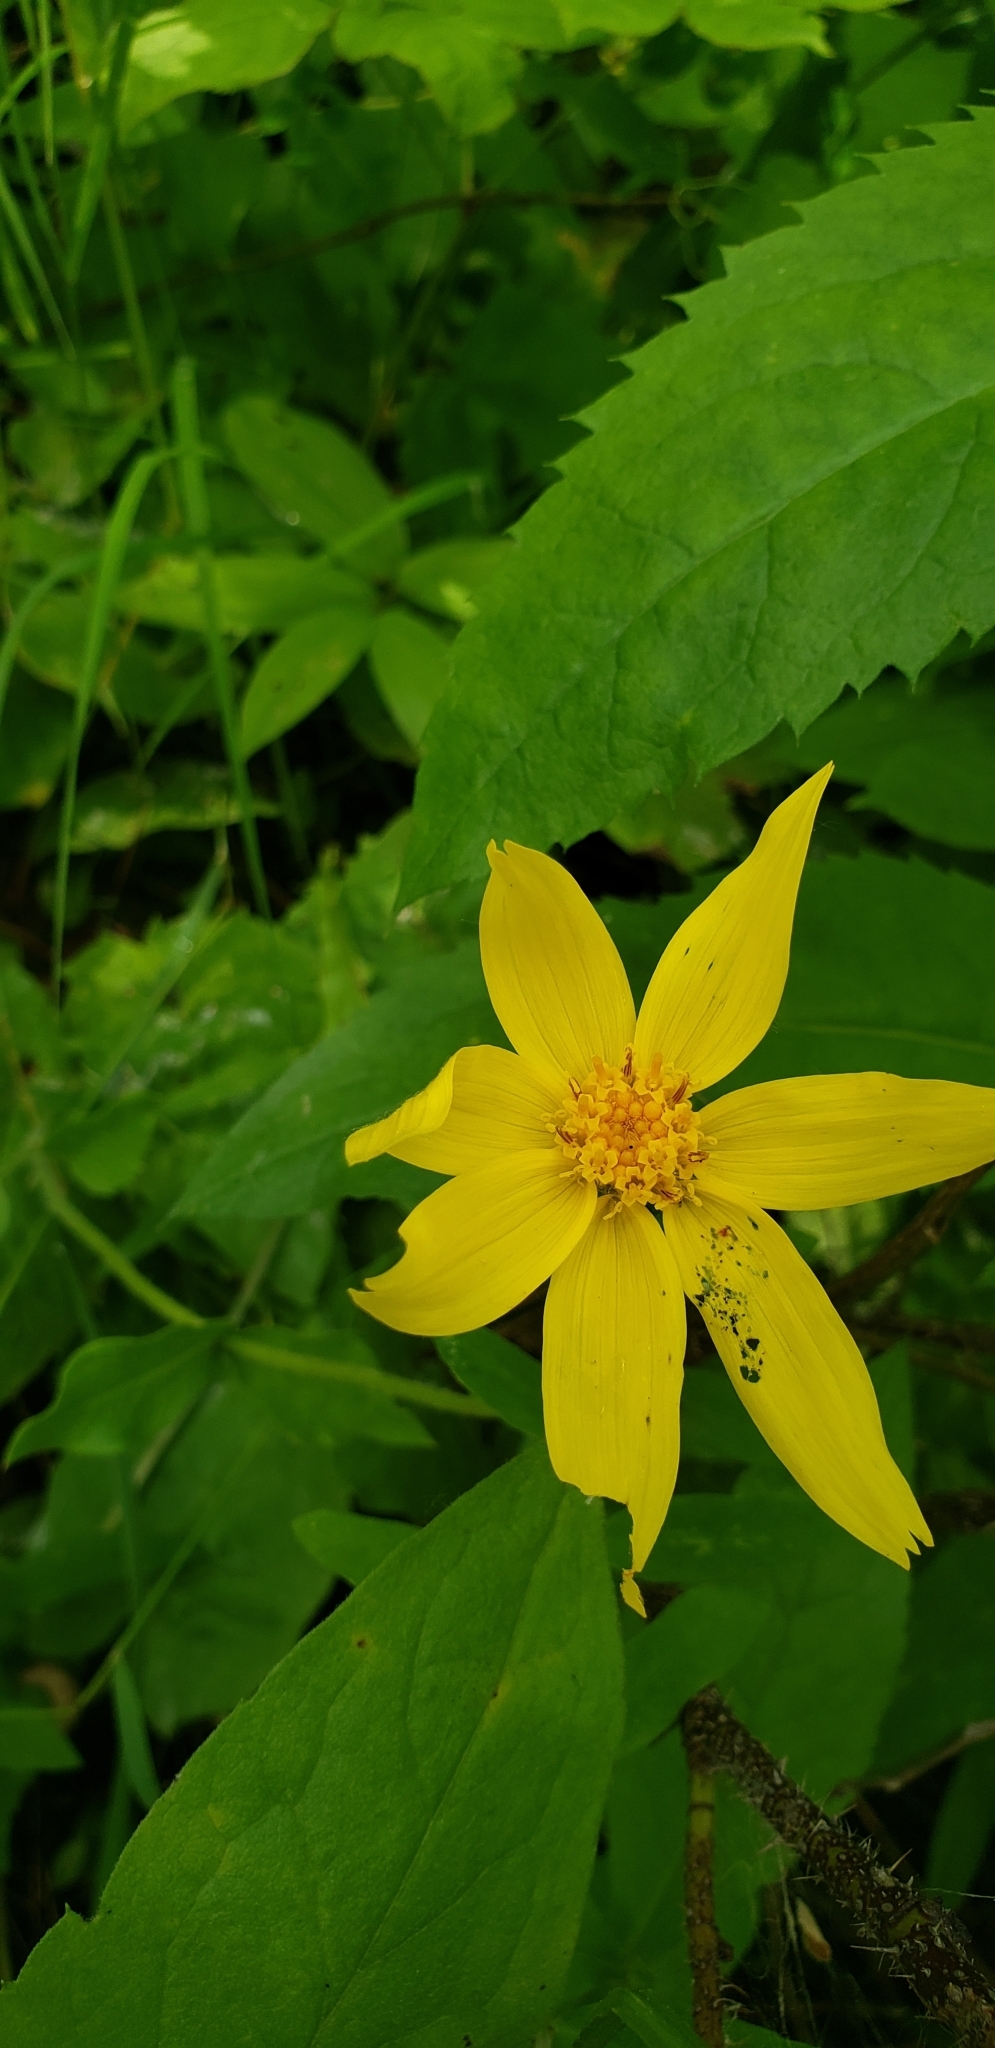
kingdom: Plantae
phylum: Tracheophyta
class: Magnoliopsida
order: Asterales
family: Asteraceae
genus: Arnica
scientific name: Arnica cordifolia
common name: Heart-leaf arnica
